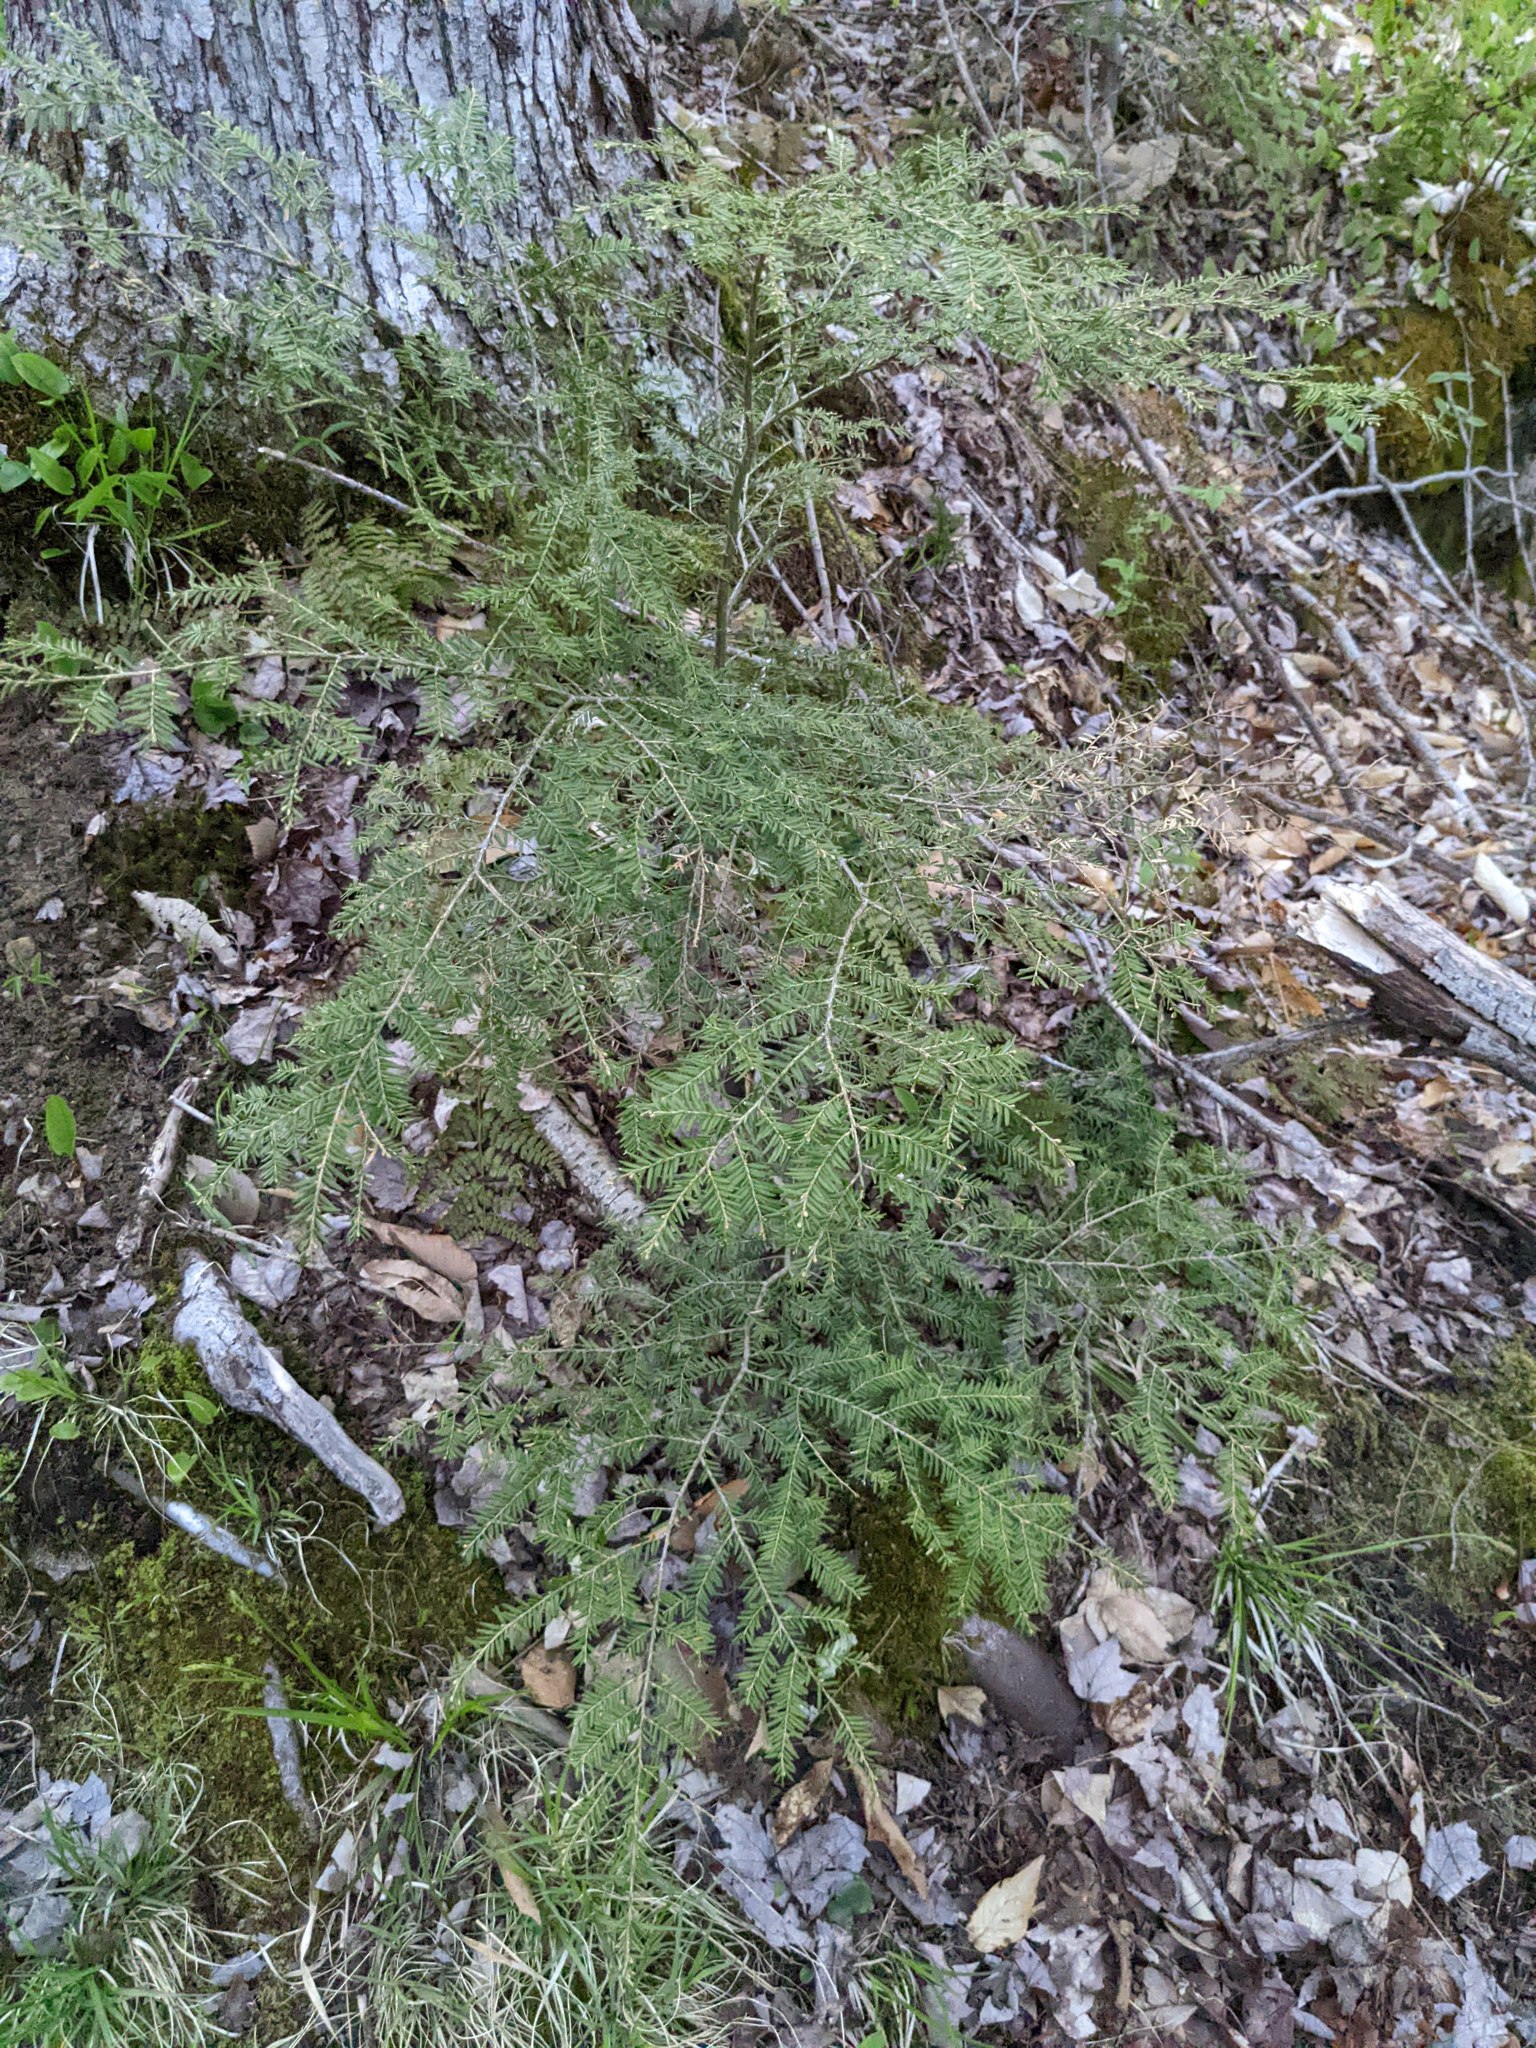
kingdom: Plantae
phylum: Tracheophyta
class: Pinopsida
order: Pinales
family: Pinaceae
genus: Tsuga
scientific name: Tsuga canadensis
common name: Eastern hemlock
